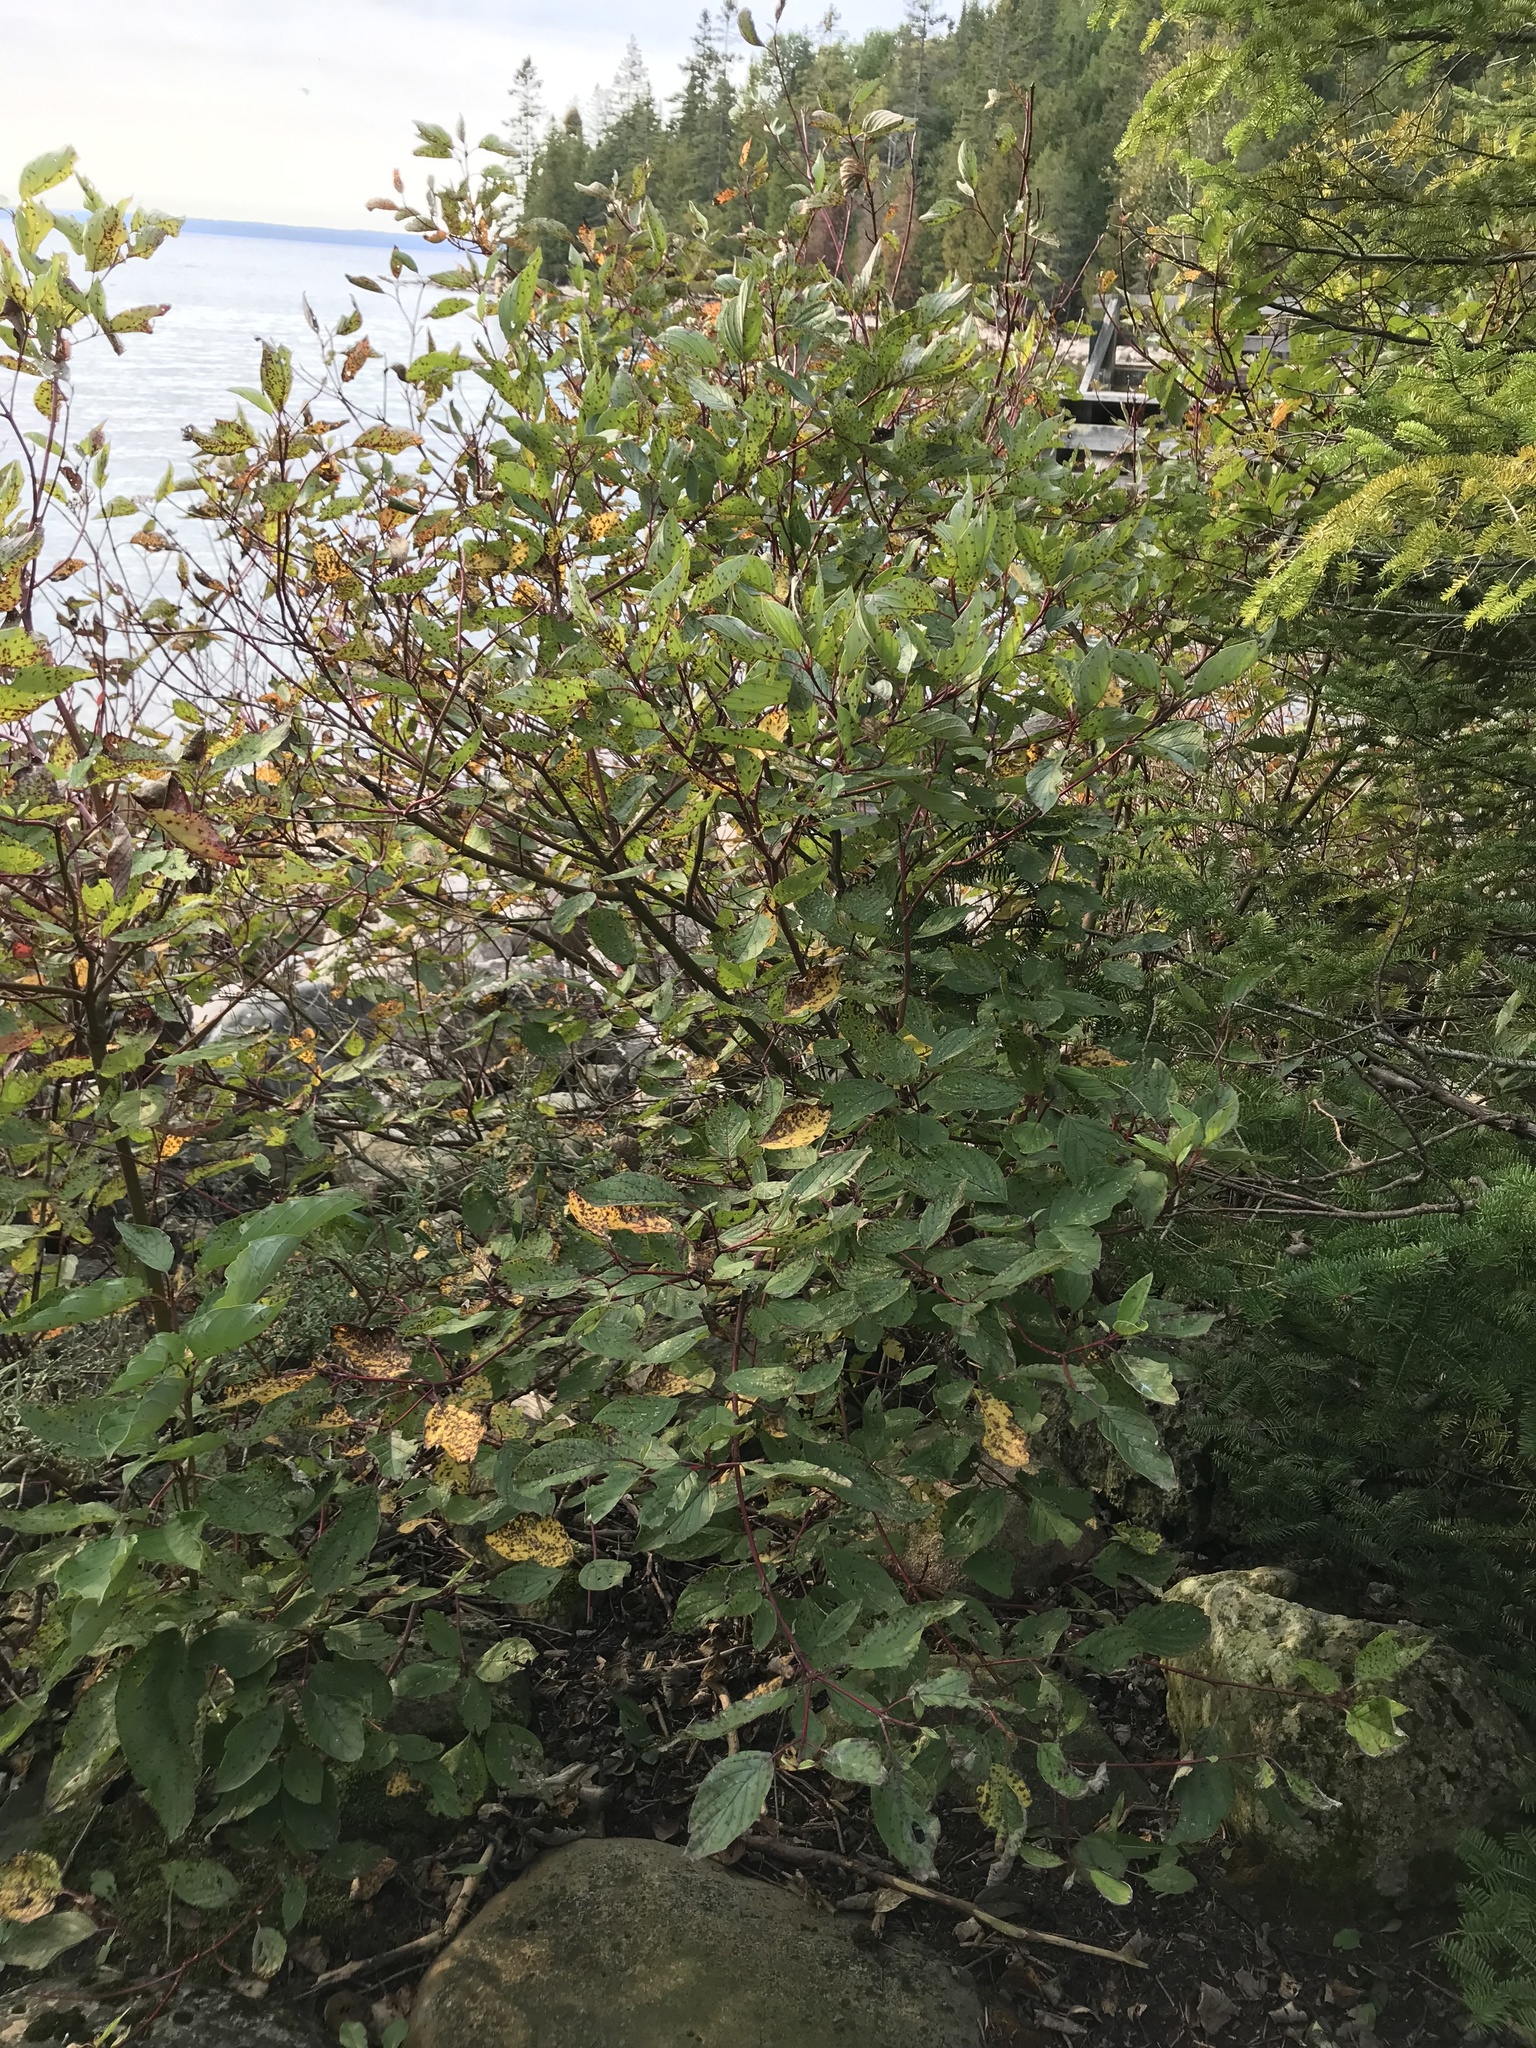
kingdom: Plantae
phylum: Tracheophyta
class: Magnoliopsida
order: Cornales
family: Cornaceae
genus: Cornus
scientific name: Cornus sericea
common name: Red-osier dogwood
